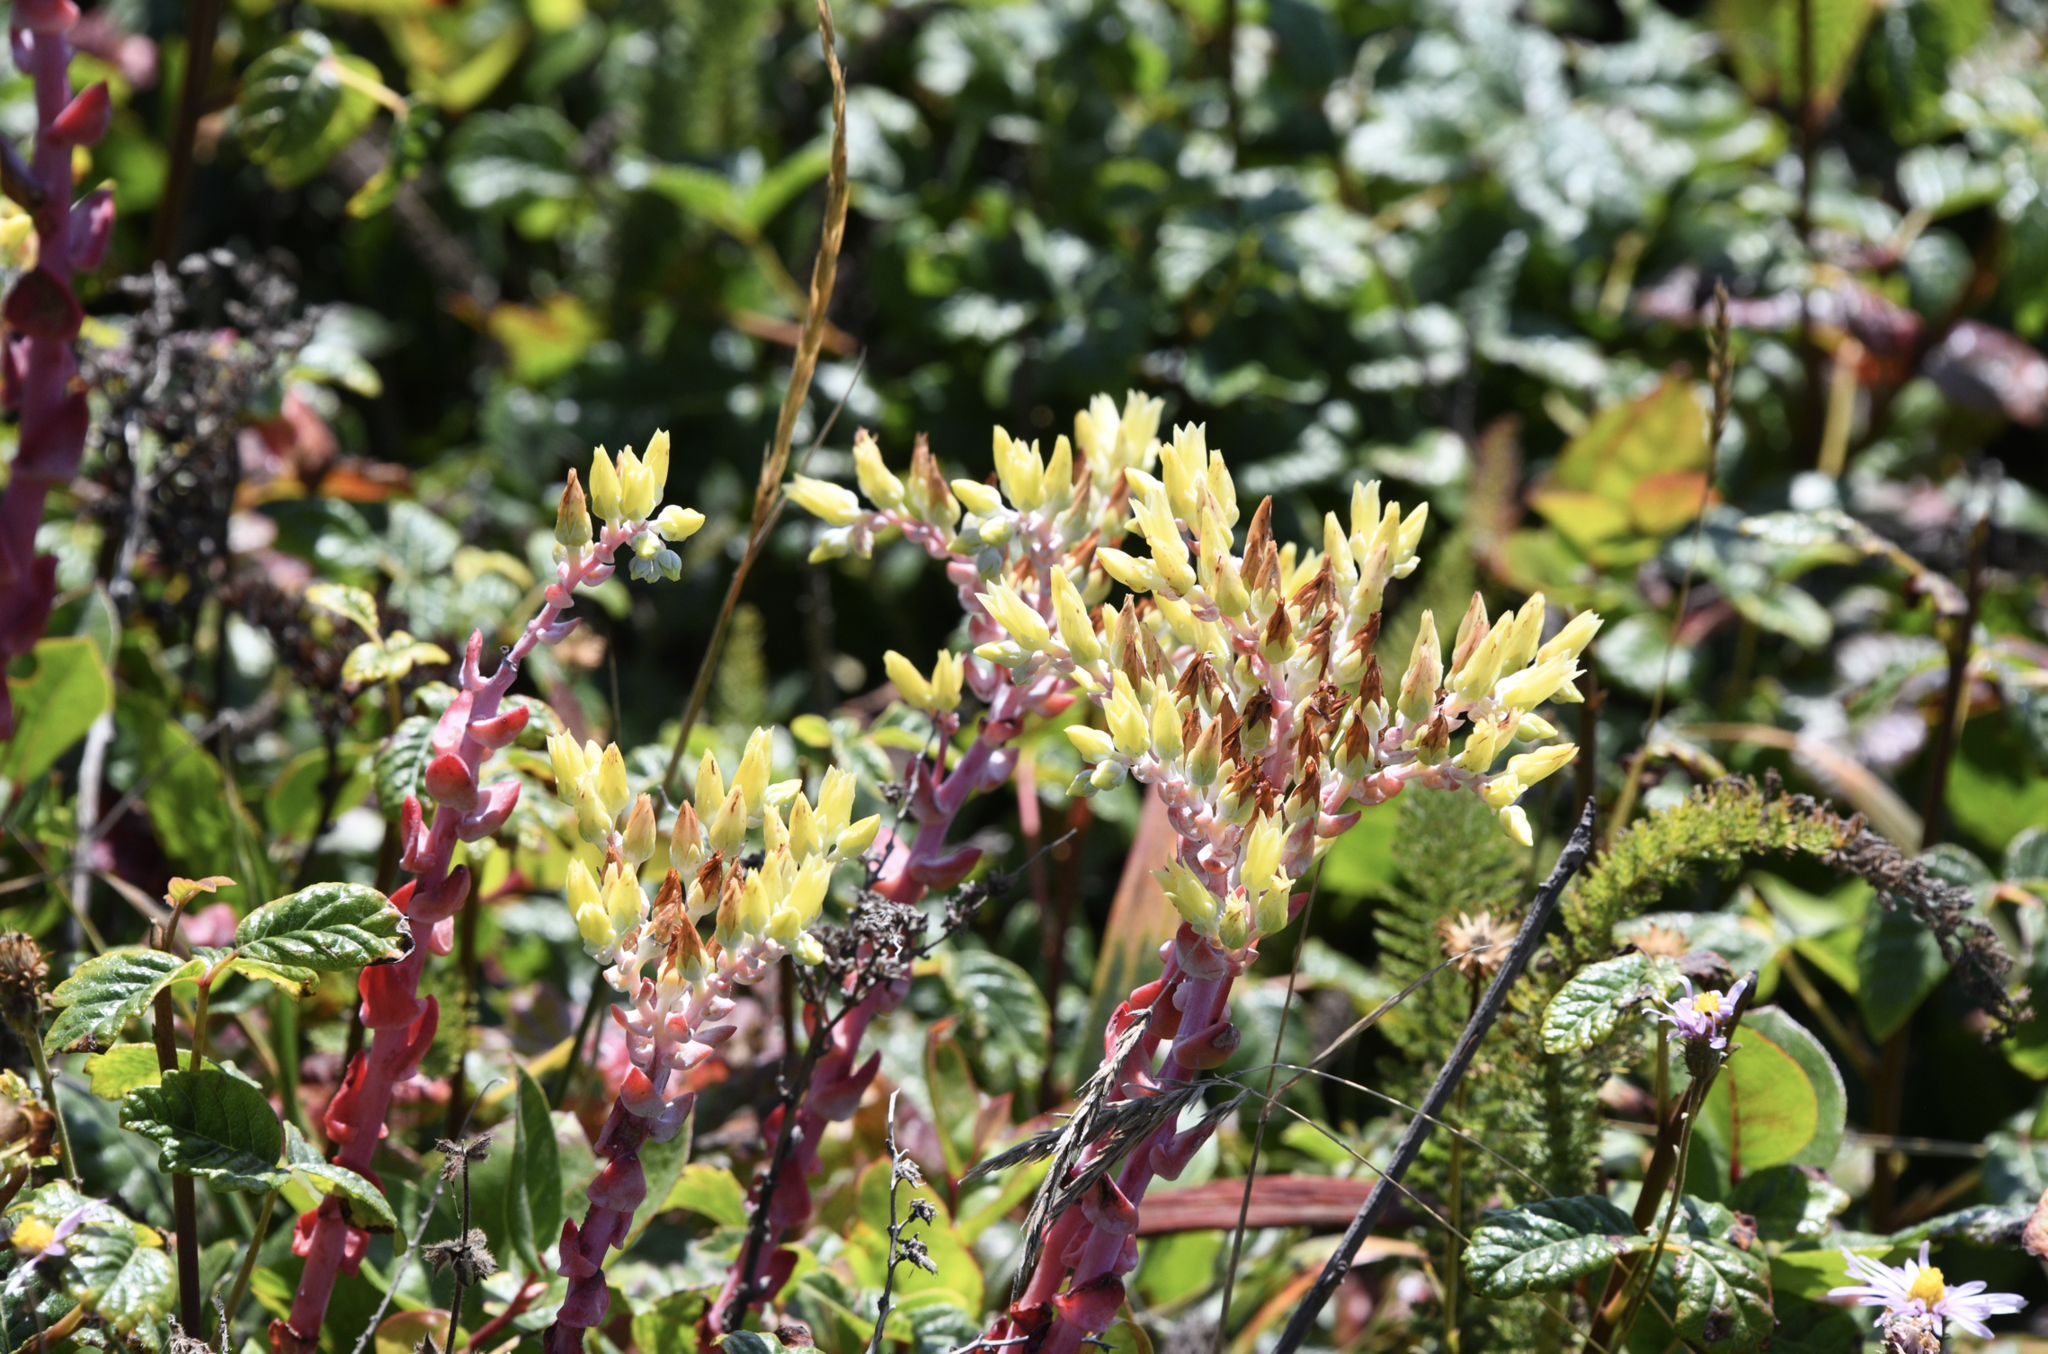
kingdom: Plantae
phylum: Tracheophyta
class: Magnoliopsida
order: Saxifragales
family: Crassulaceae
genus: Dudleya
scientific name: Dudleya farinosa
